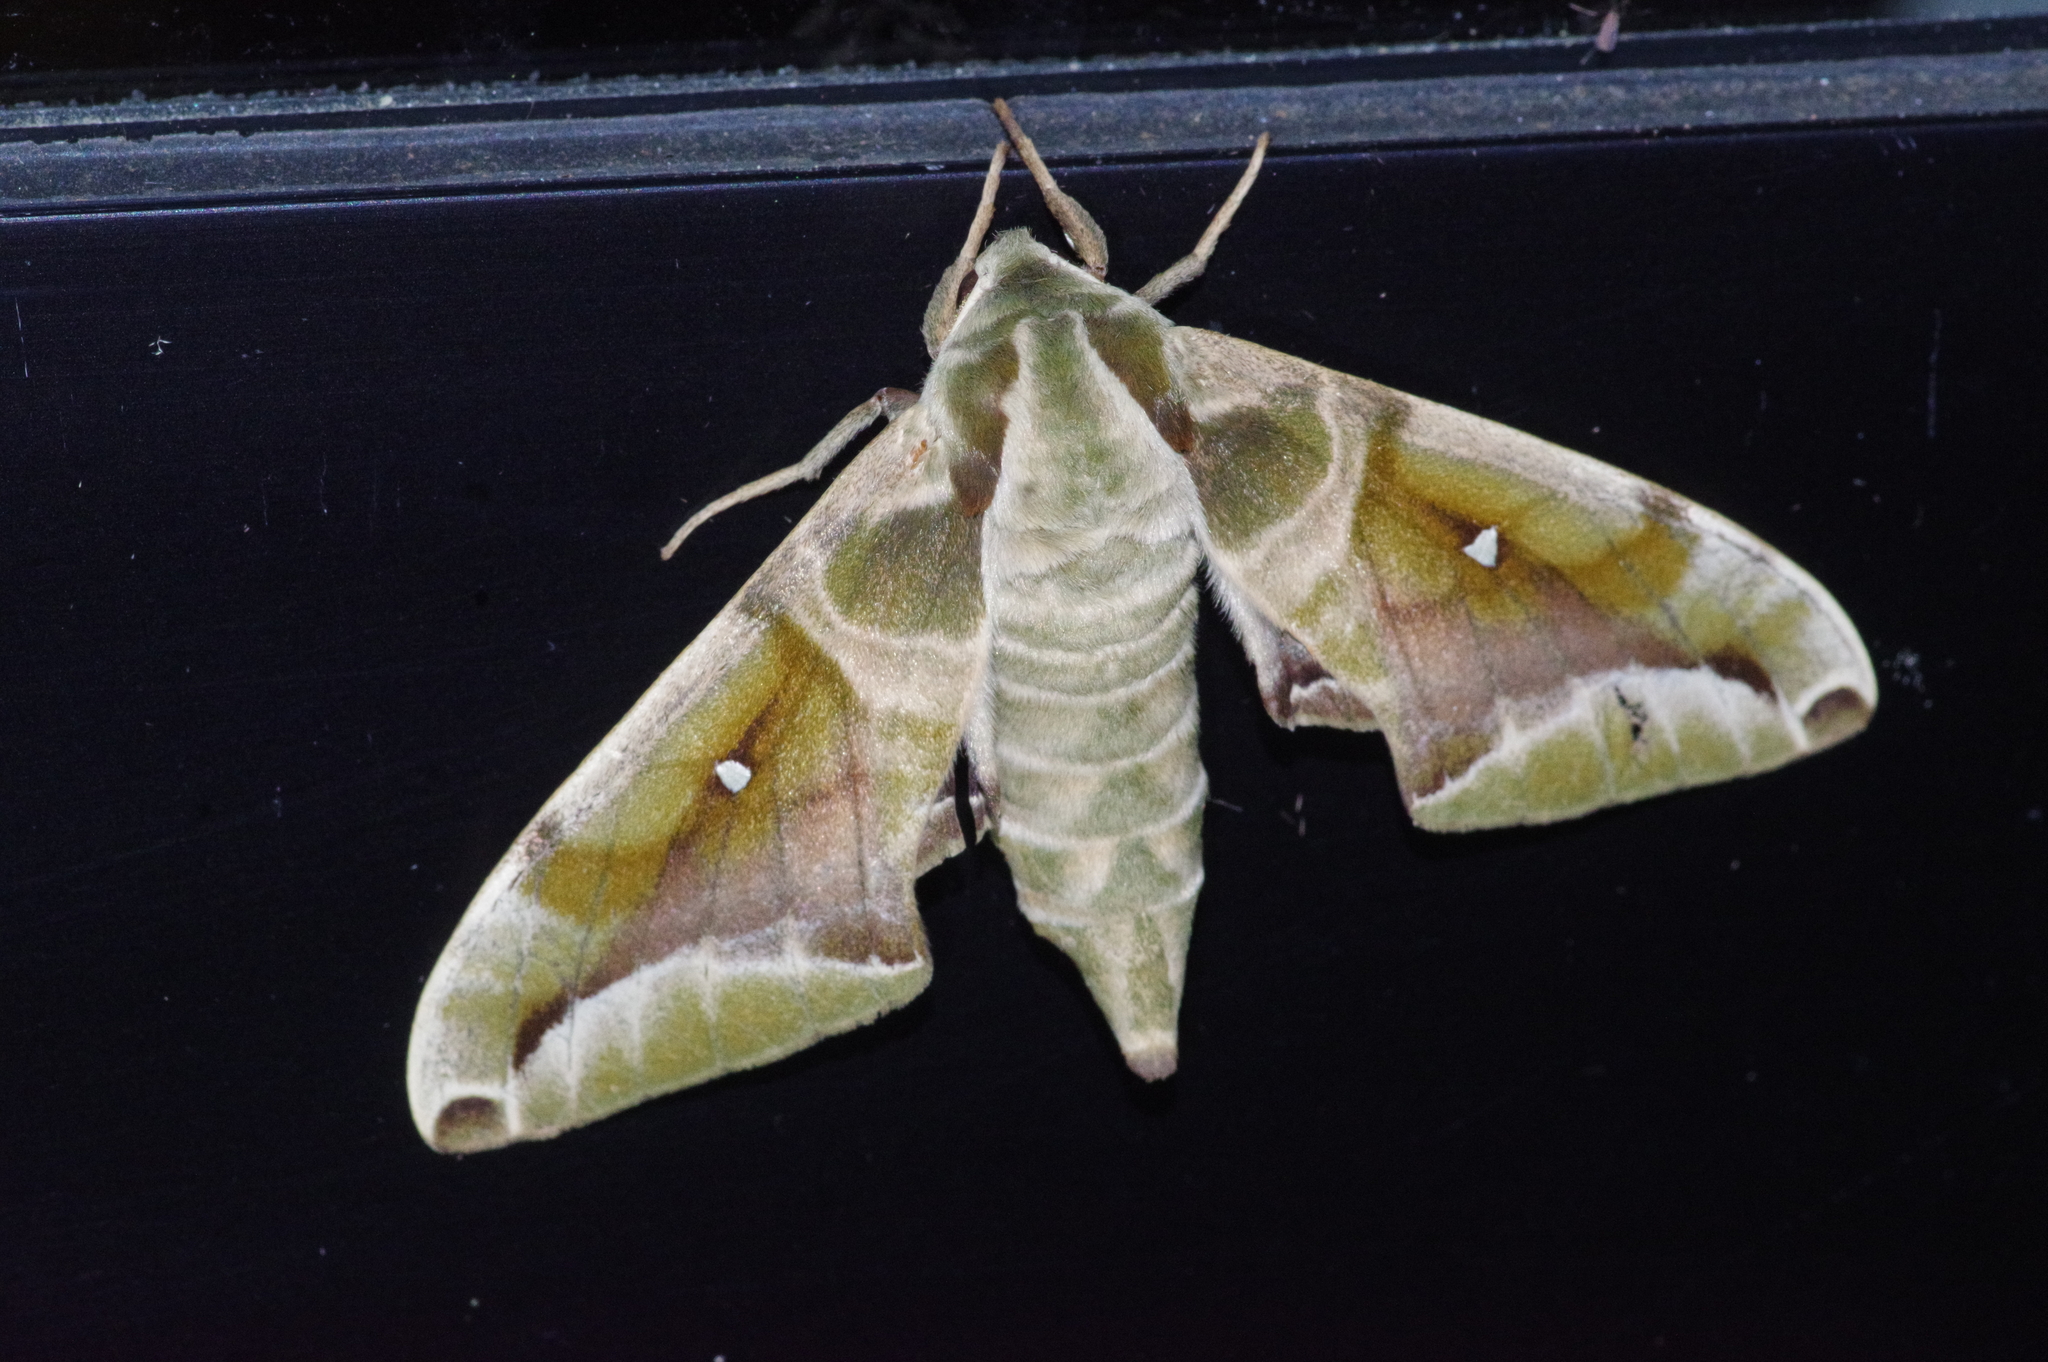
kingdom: Animalia
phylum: Arthropoda
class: Insecta
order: Lepidoptera
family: Sphingidae
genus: Parum
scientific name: Parum colligata
